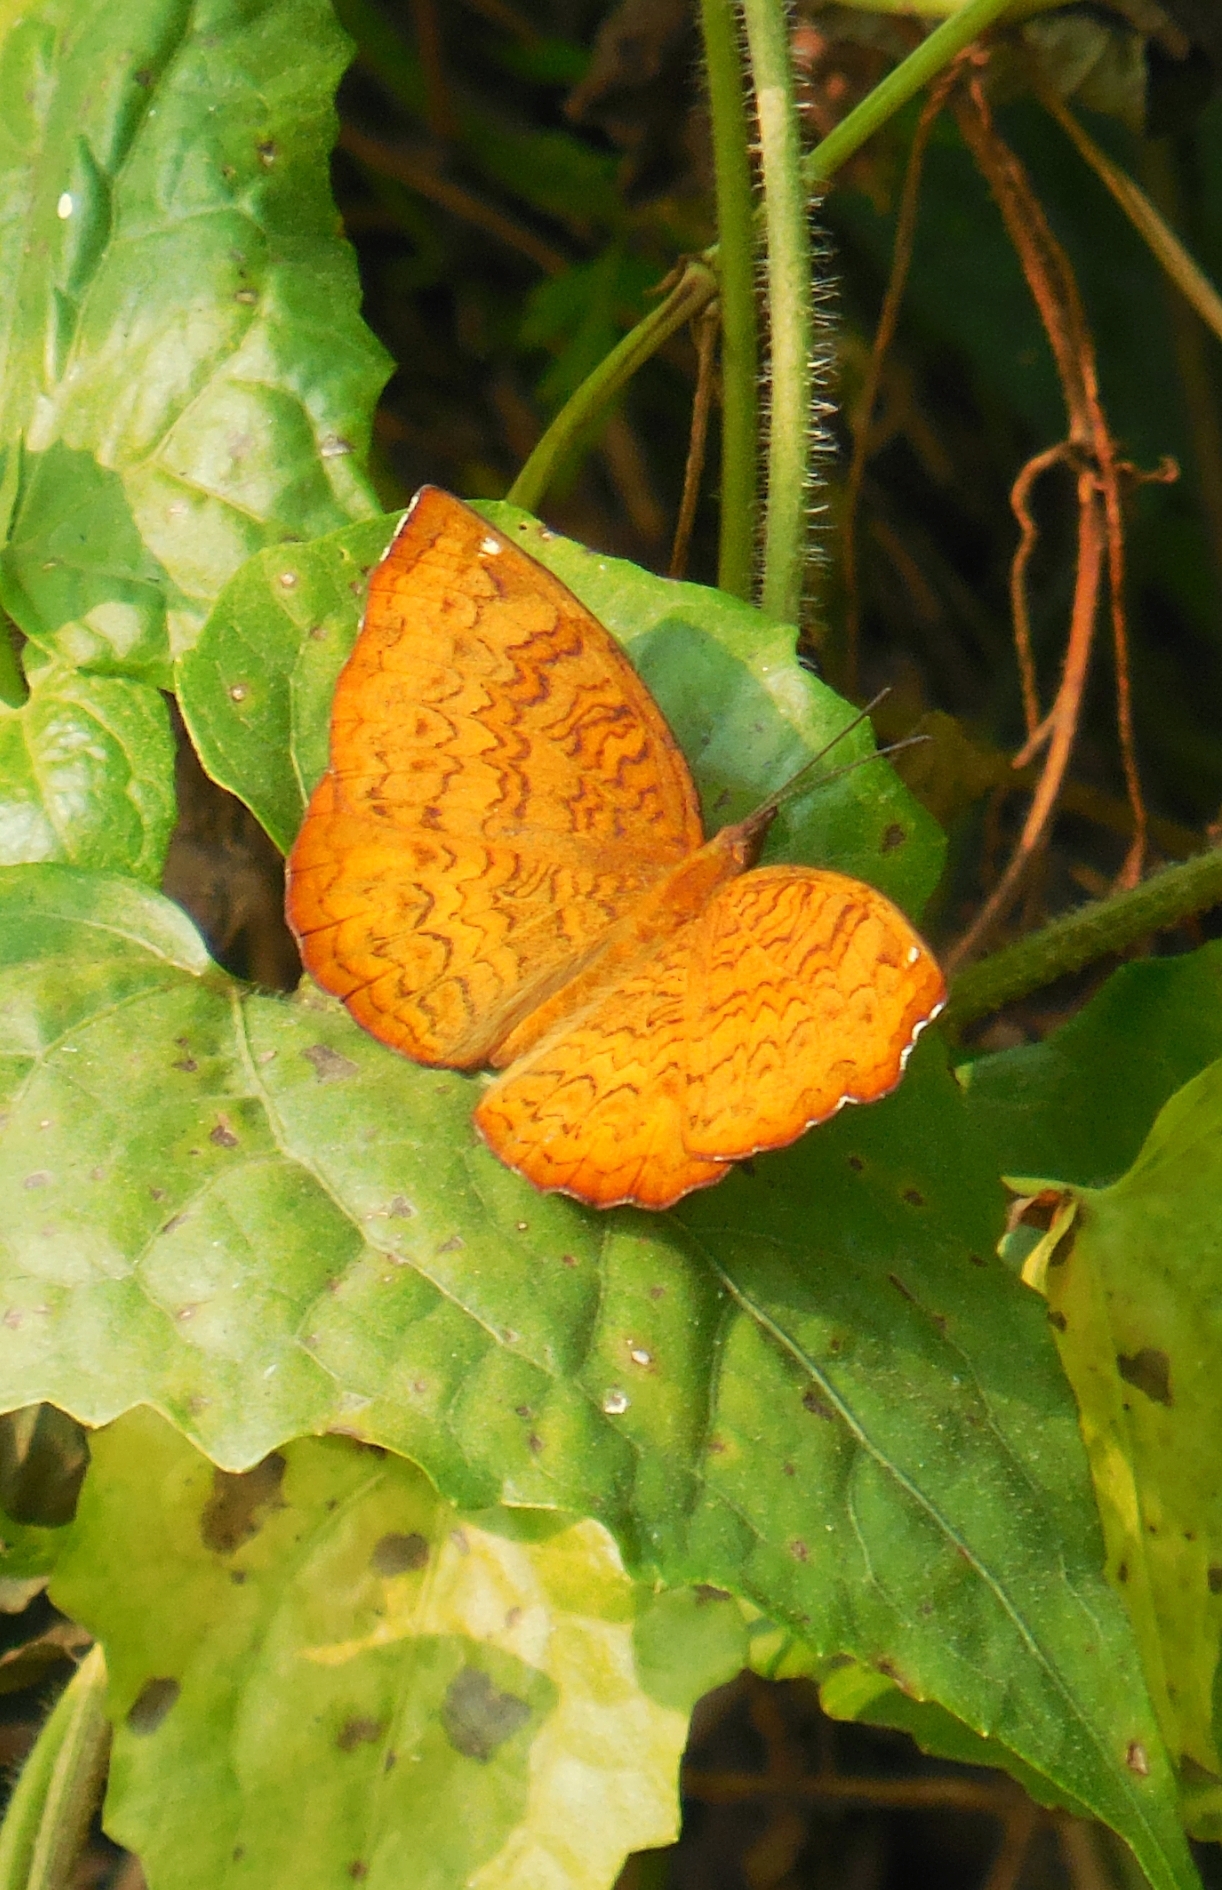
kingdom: Animalia
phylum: Arthropoda
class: Insecta
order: Lepidoptera
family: Nymphalidae
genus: Ariadne
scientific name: Ariadne merione
